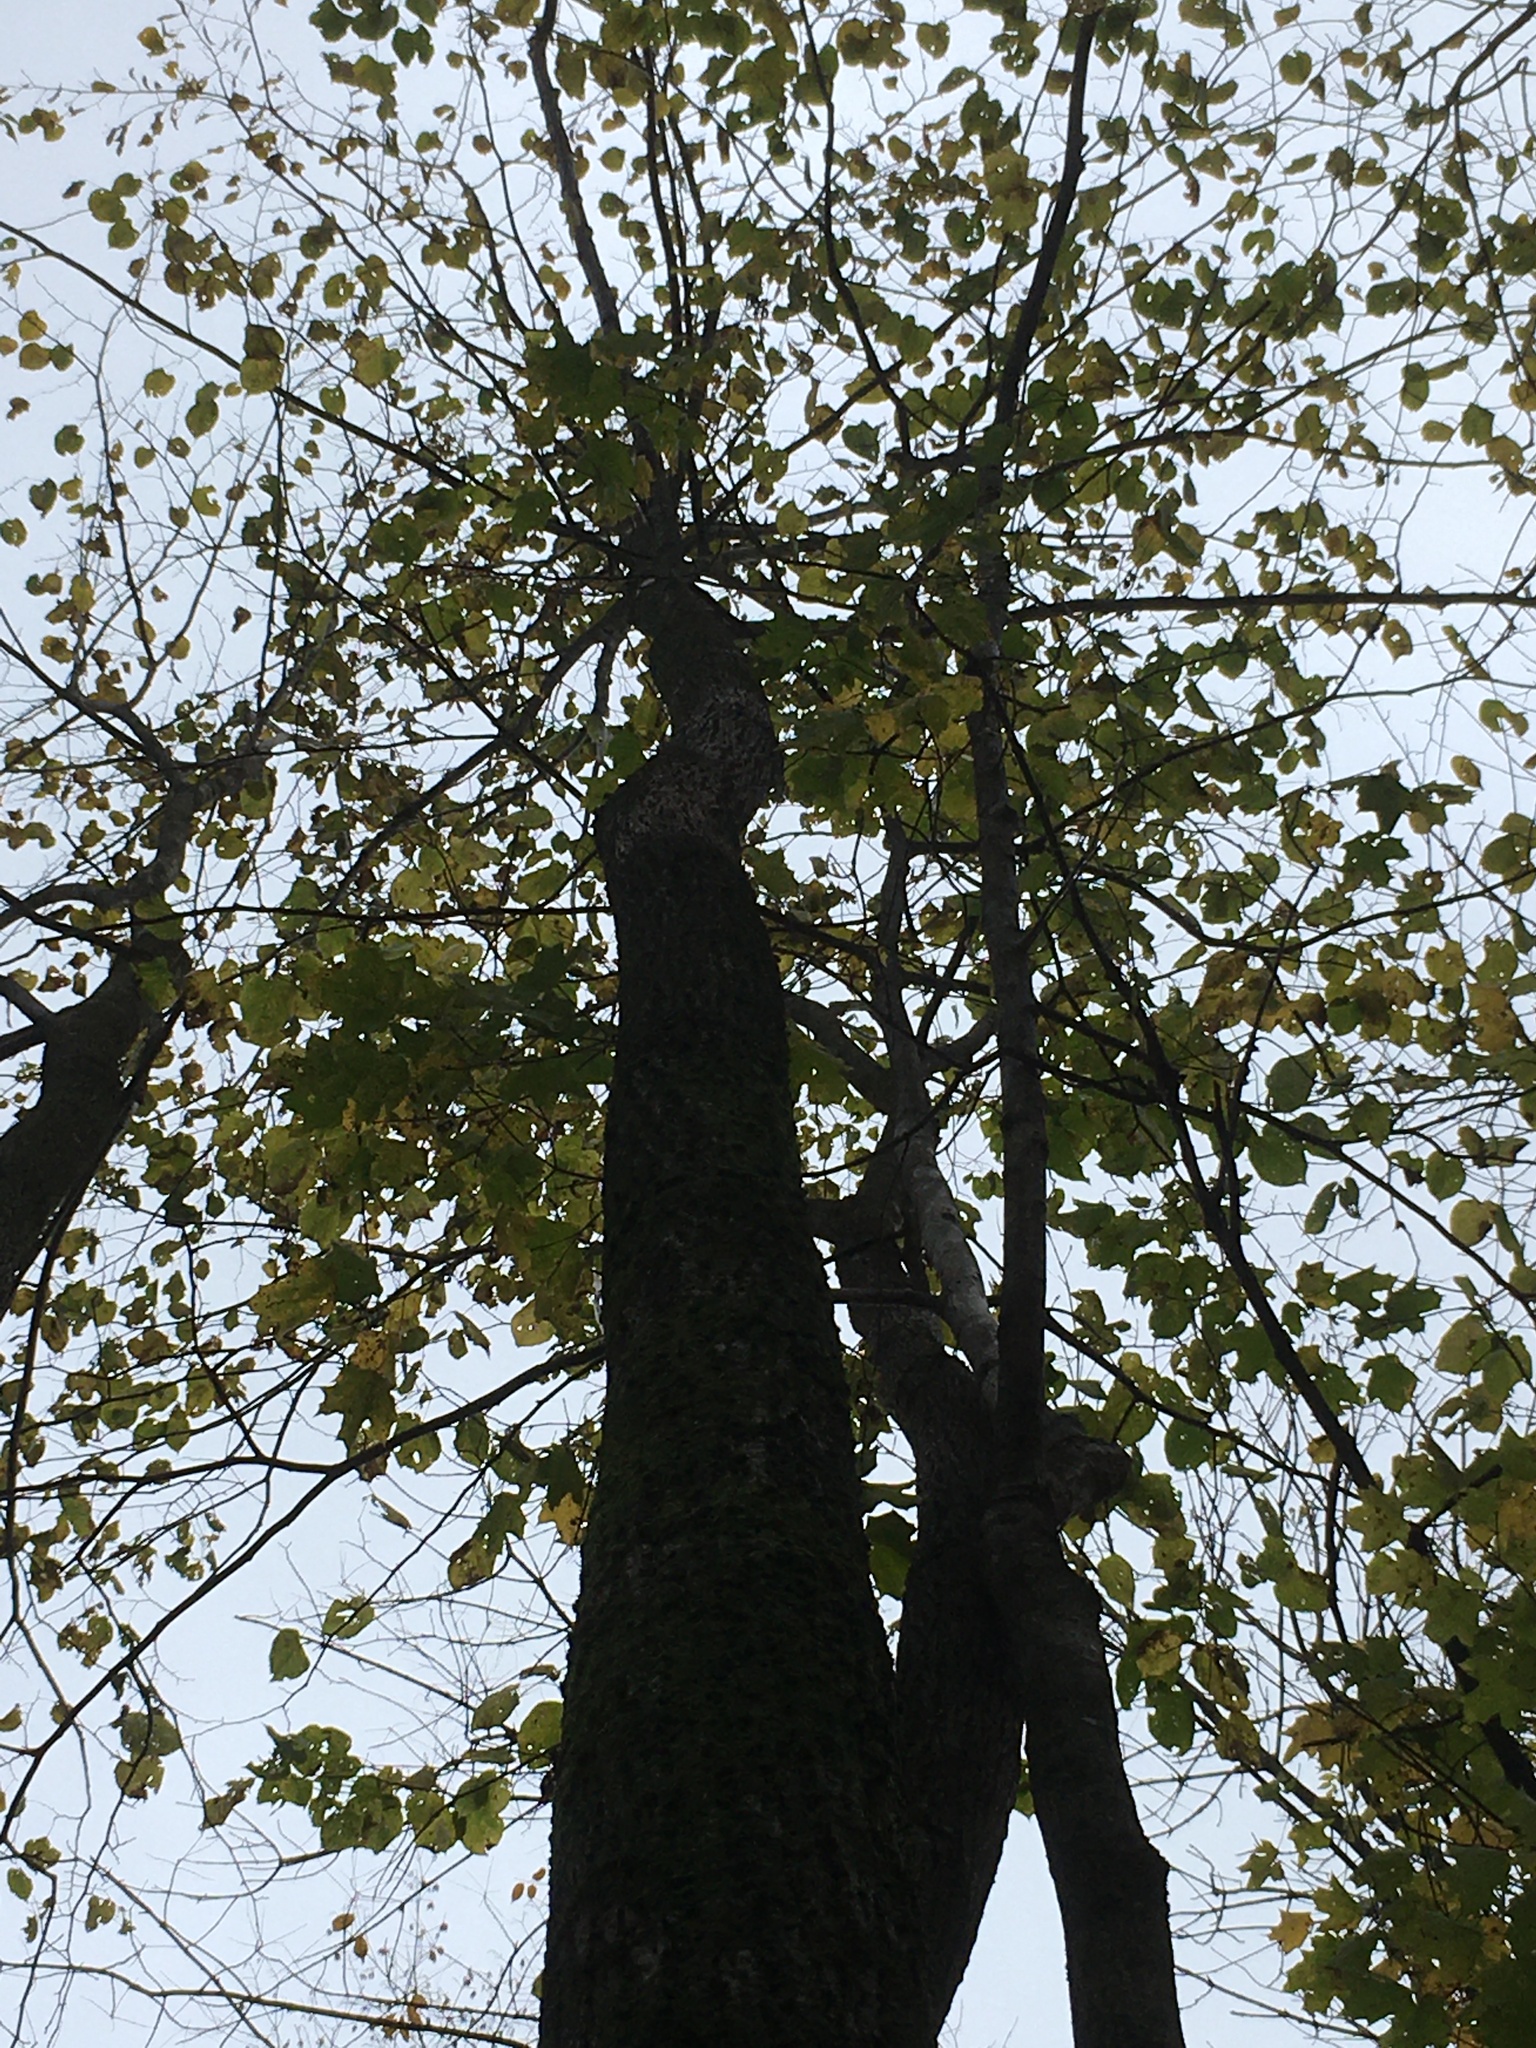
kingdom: Plantae
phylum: Tracheophyta
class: Magnoliopsida
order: Malvales
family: Malvaceae
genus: Tilia
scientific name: Tilia americana
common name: Basswood
